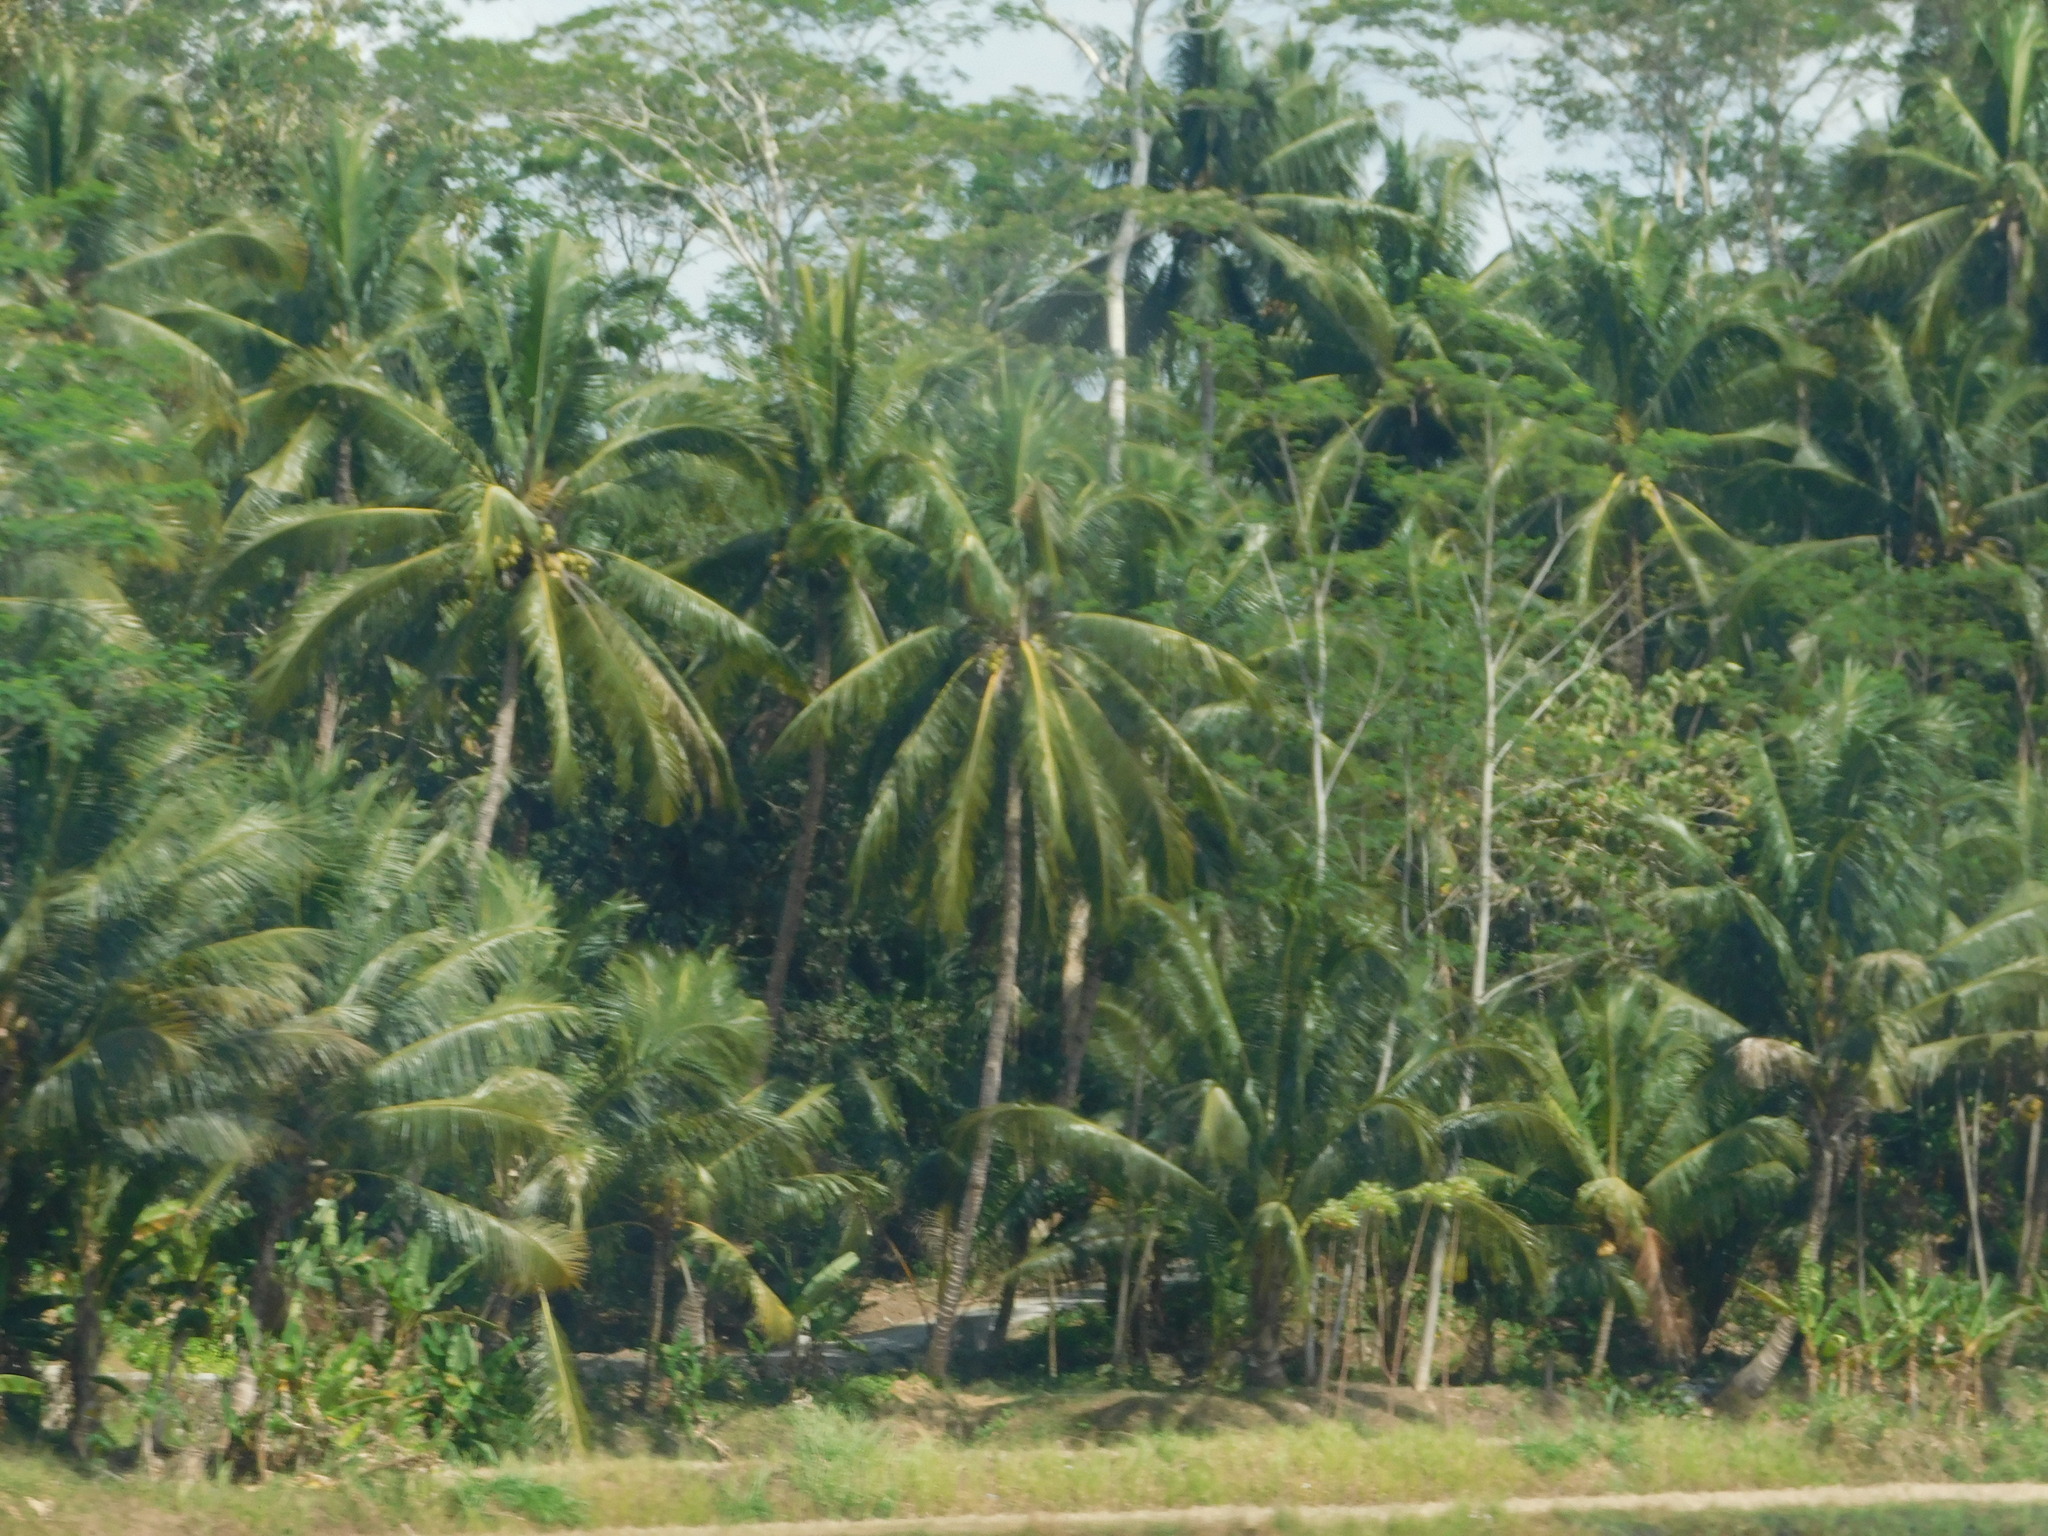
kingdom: Plantae
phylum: Tracheophyta
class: Liliopsida
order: Arecales
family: Arecaceae
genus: Cocos
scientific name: Cocos nucifera
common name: Coconut palm
